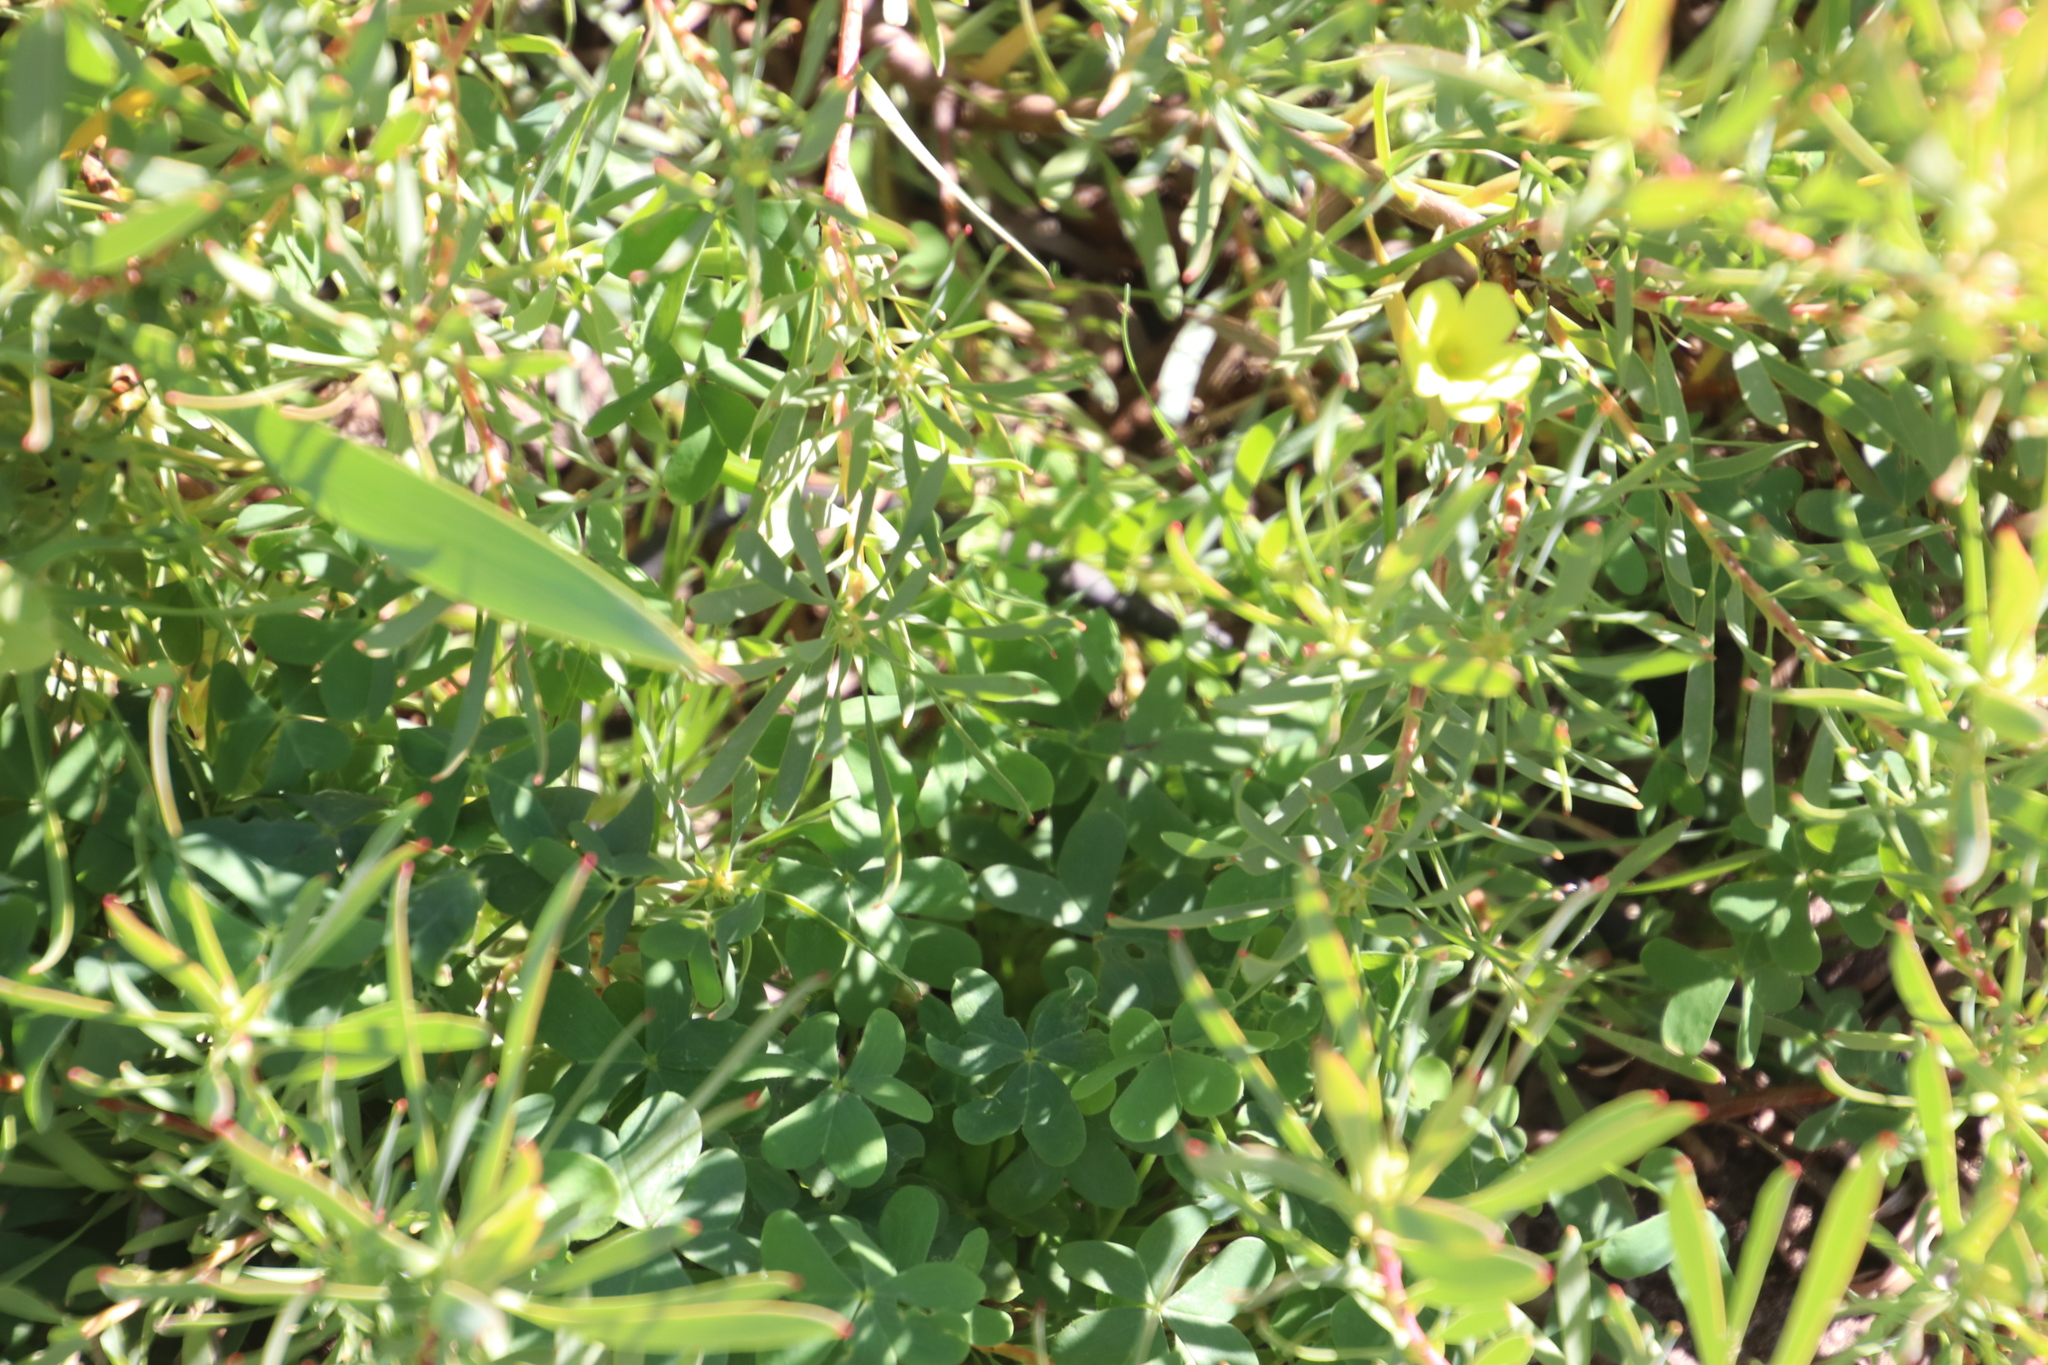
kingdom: Plantae
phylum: Tracheophyta
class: Magnoliopsida
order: Oxalidales
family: Oxalidaceae
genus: Oxalis
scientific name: Oxalis pes-caprae
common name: Bermuda-buttercup
